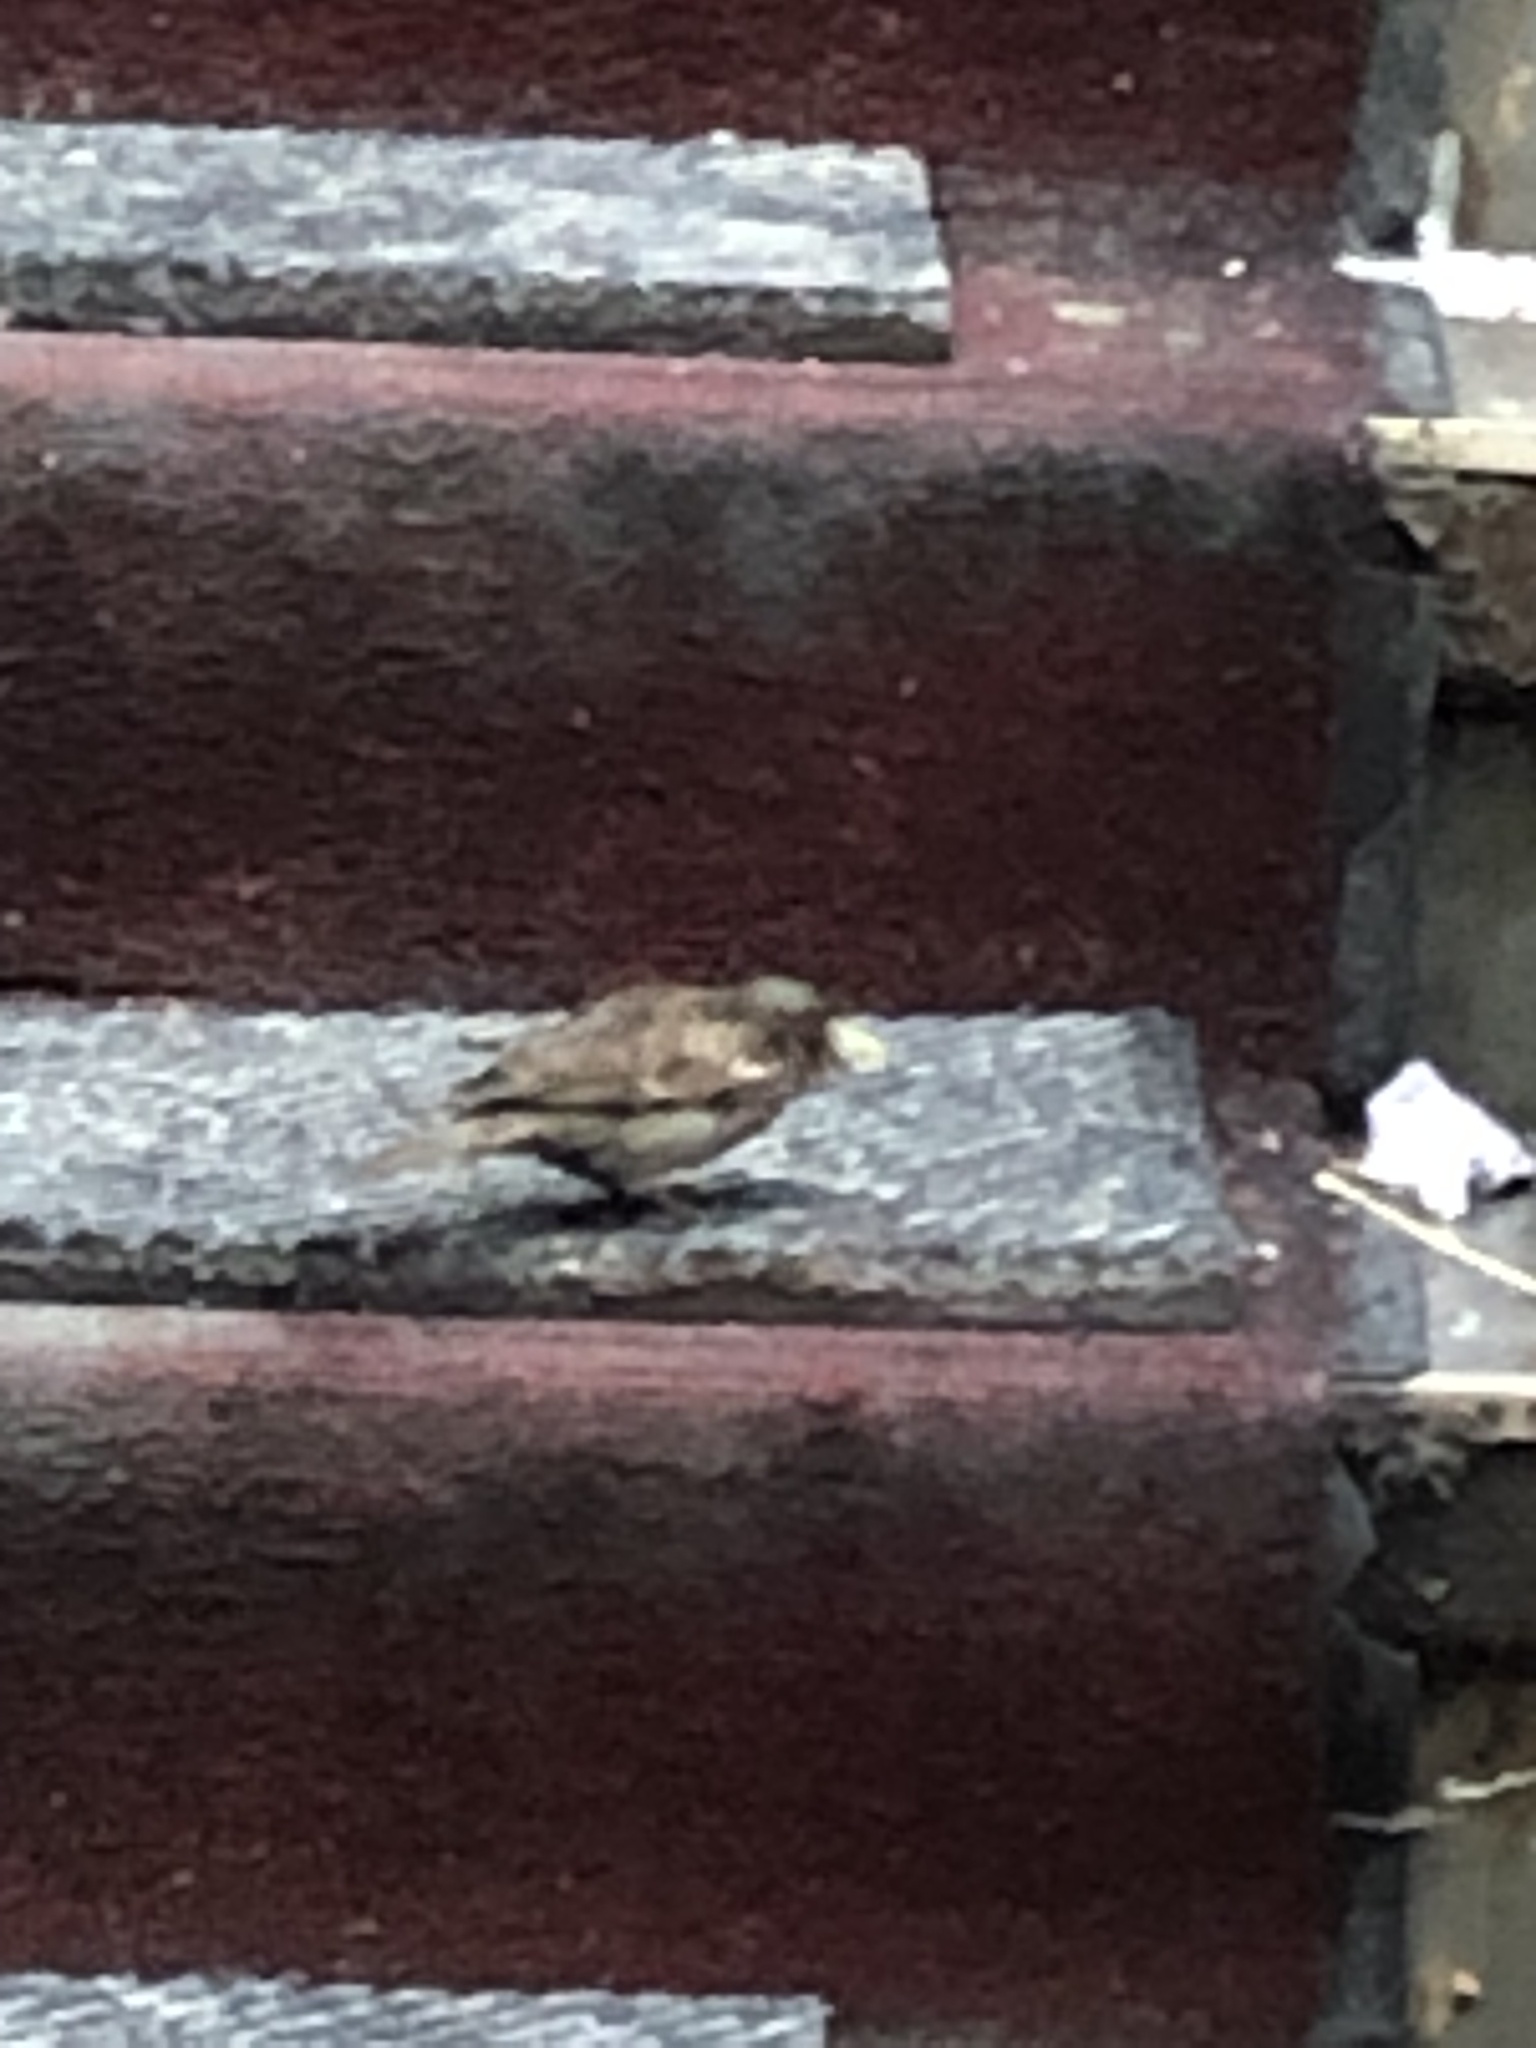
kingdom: Animalia
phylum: Chordata
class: Aves
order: Passeriformes
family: Passeridae
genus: Passer
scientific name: Passer domesticus
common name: House sparrow
